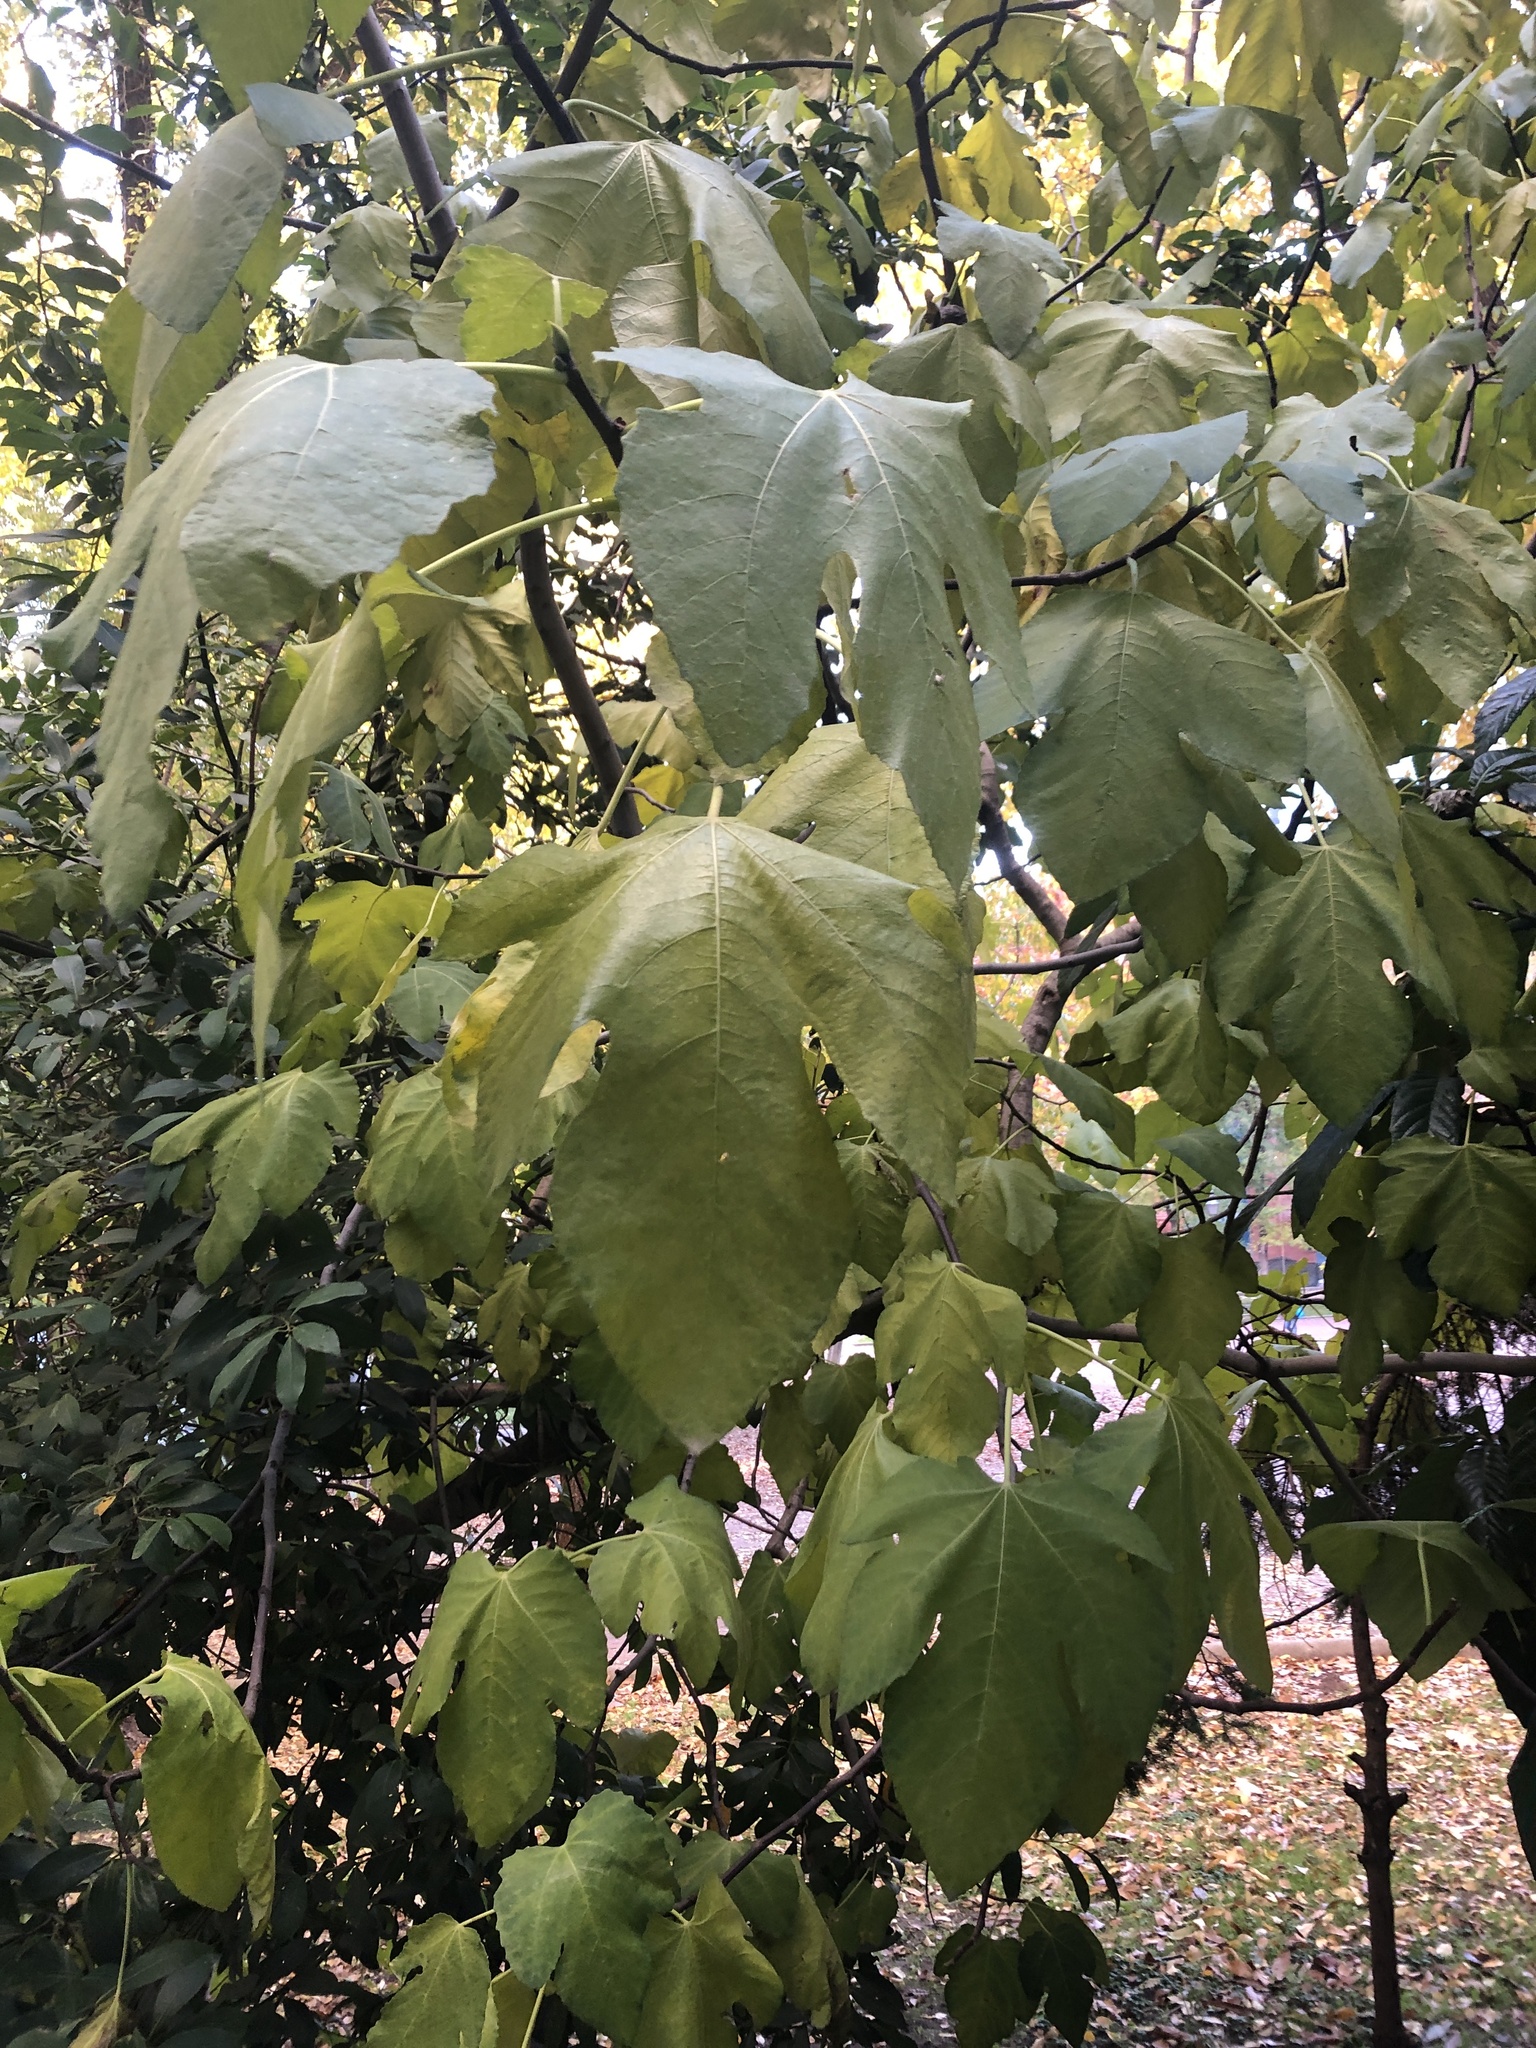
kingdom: Plantae
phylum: Tracheophyta
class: Magnoliopsida
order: Rosales
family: Moraceae
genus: Ficus
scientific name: Ficus carica
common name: Fig
